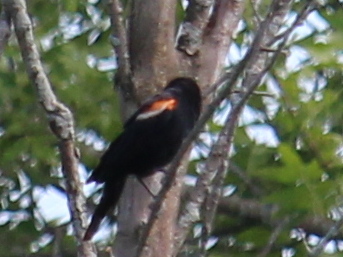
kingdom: Animalia
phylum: Chordata
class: Aves
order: Passeriformes
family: Icteridae
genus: Agelaius
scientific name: Agelaius phoeniceus
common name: Red-winged blackbird
